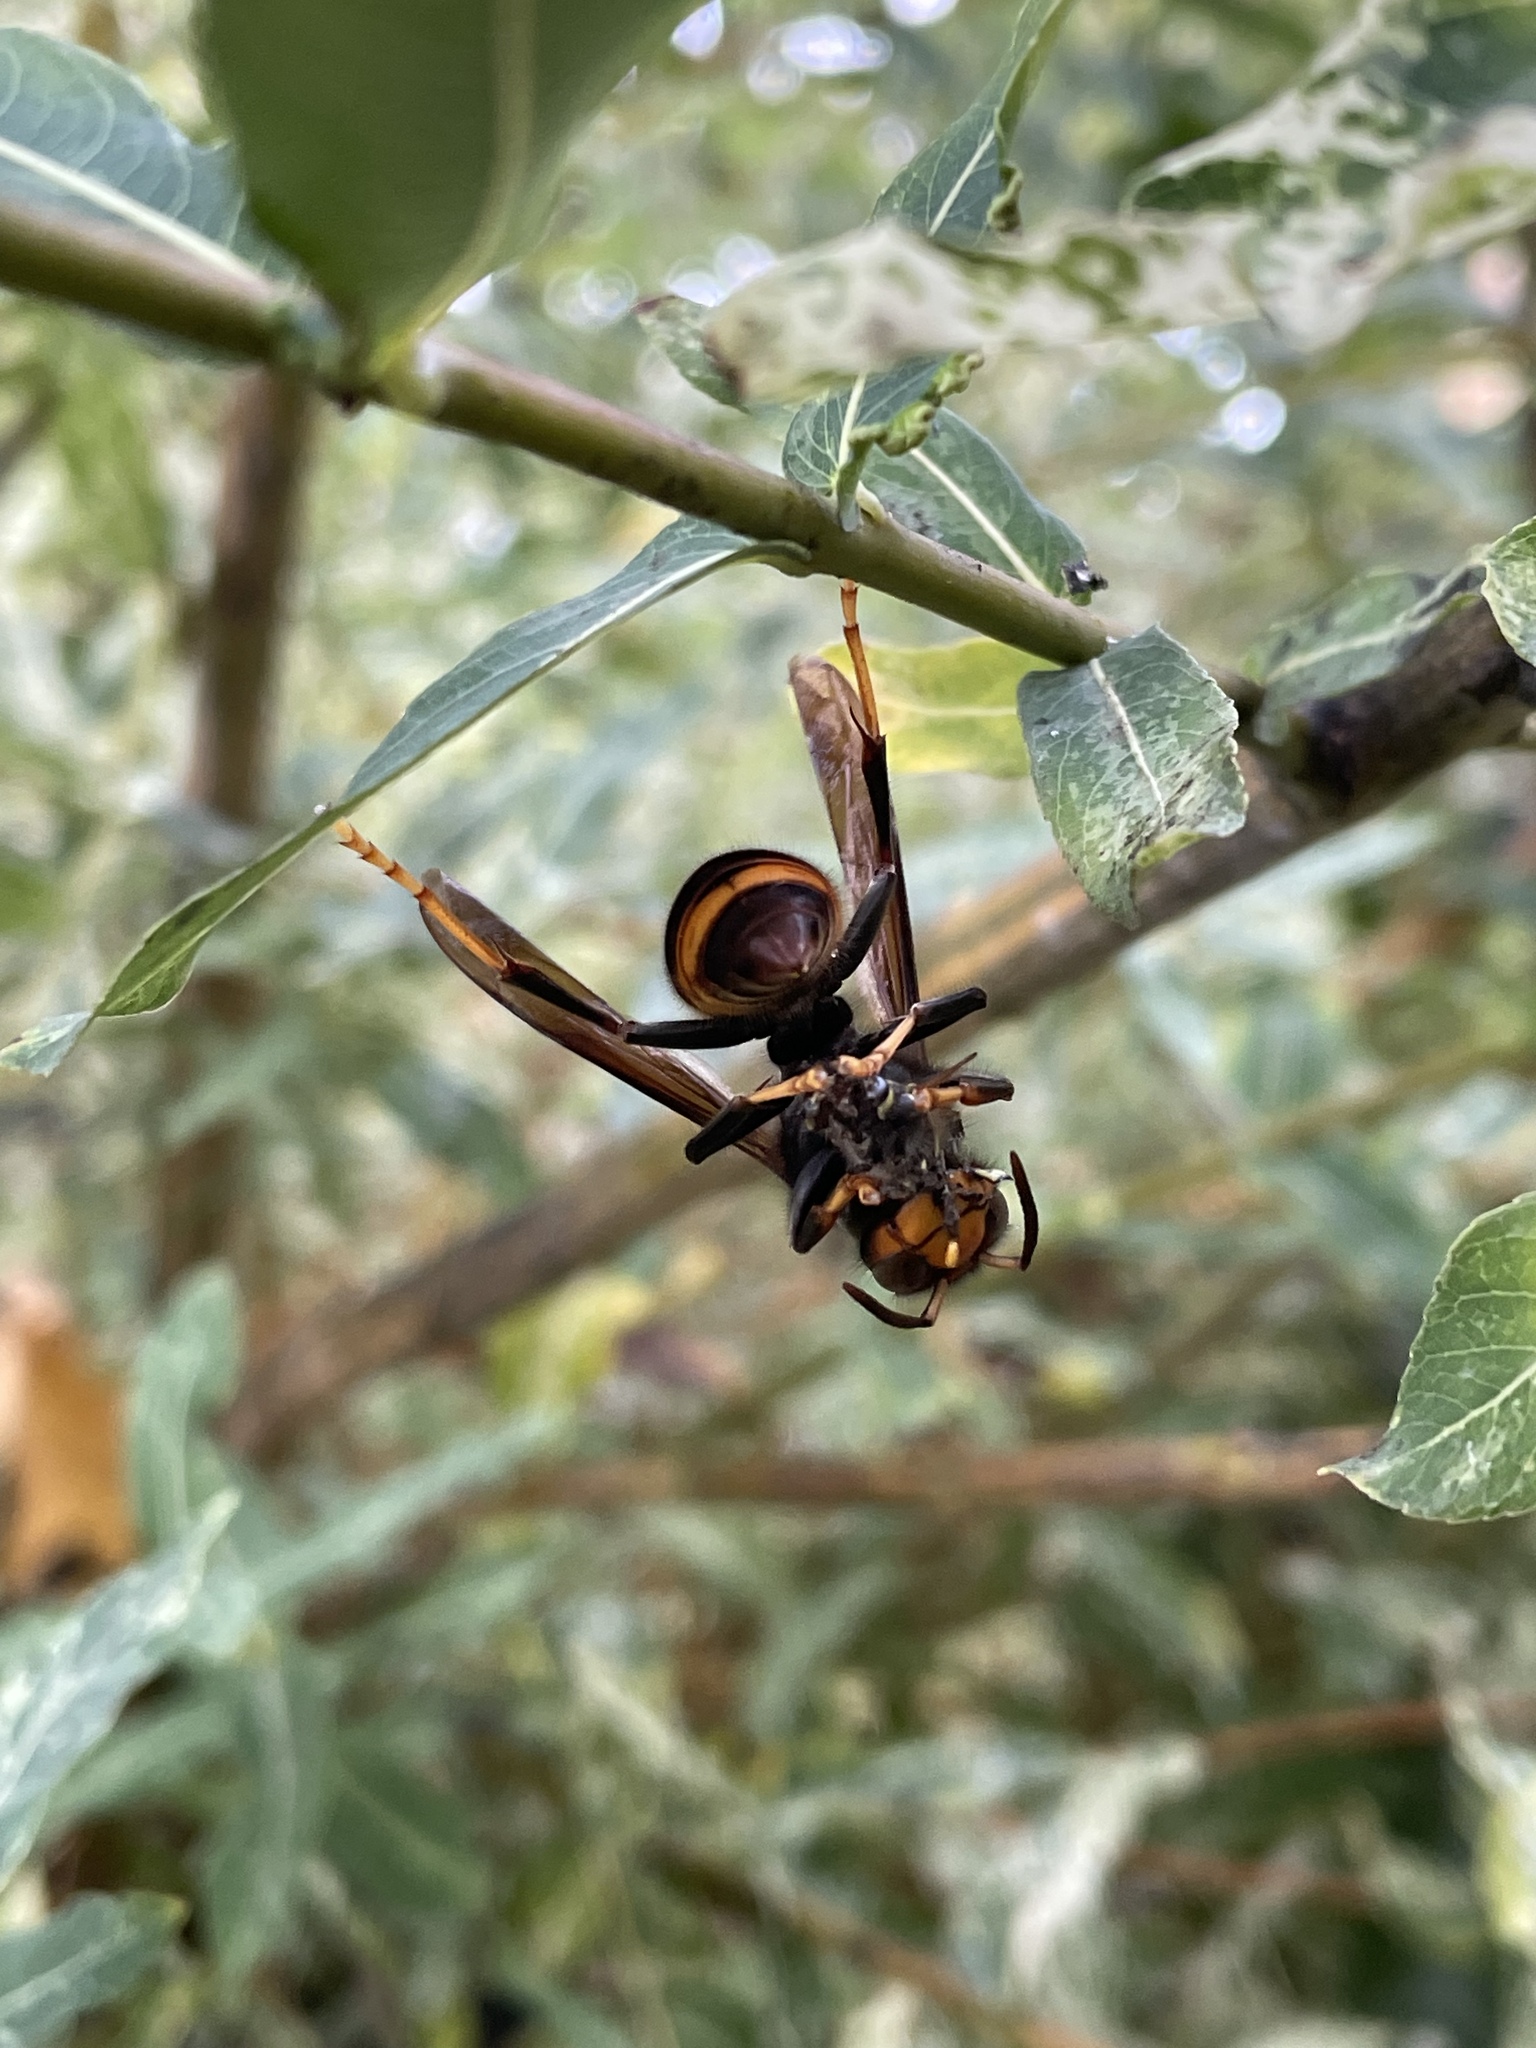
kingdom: Animalia
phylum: Arthropoda
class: Insecta
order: Hymenoptera
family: Vespidae
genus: Vespa
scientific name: Vespa velutina
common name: Asian hornet
